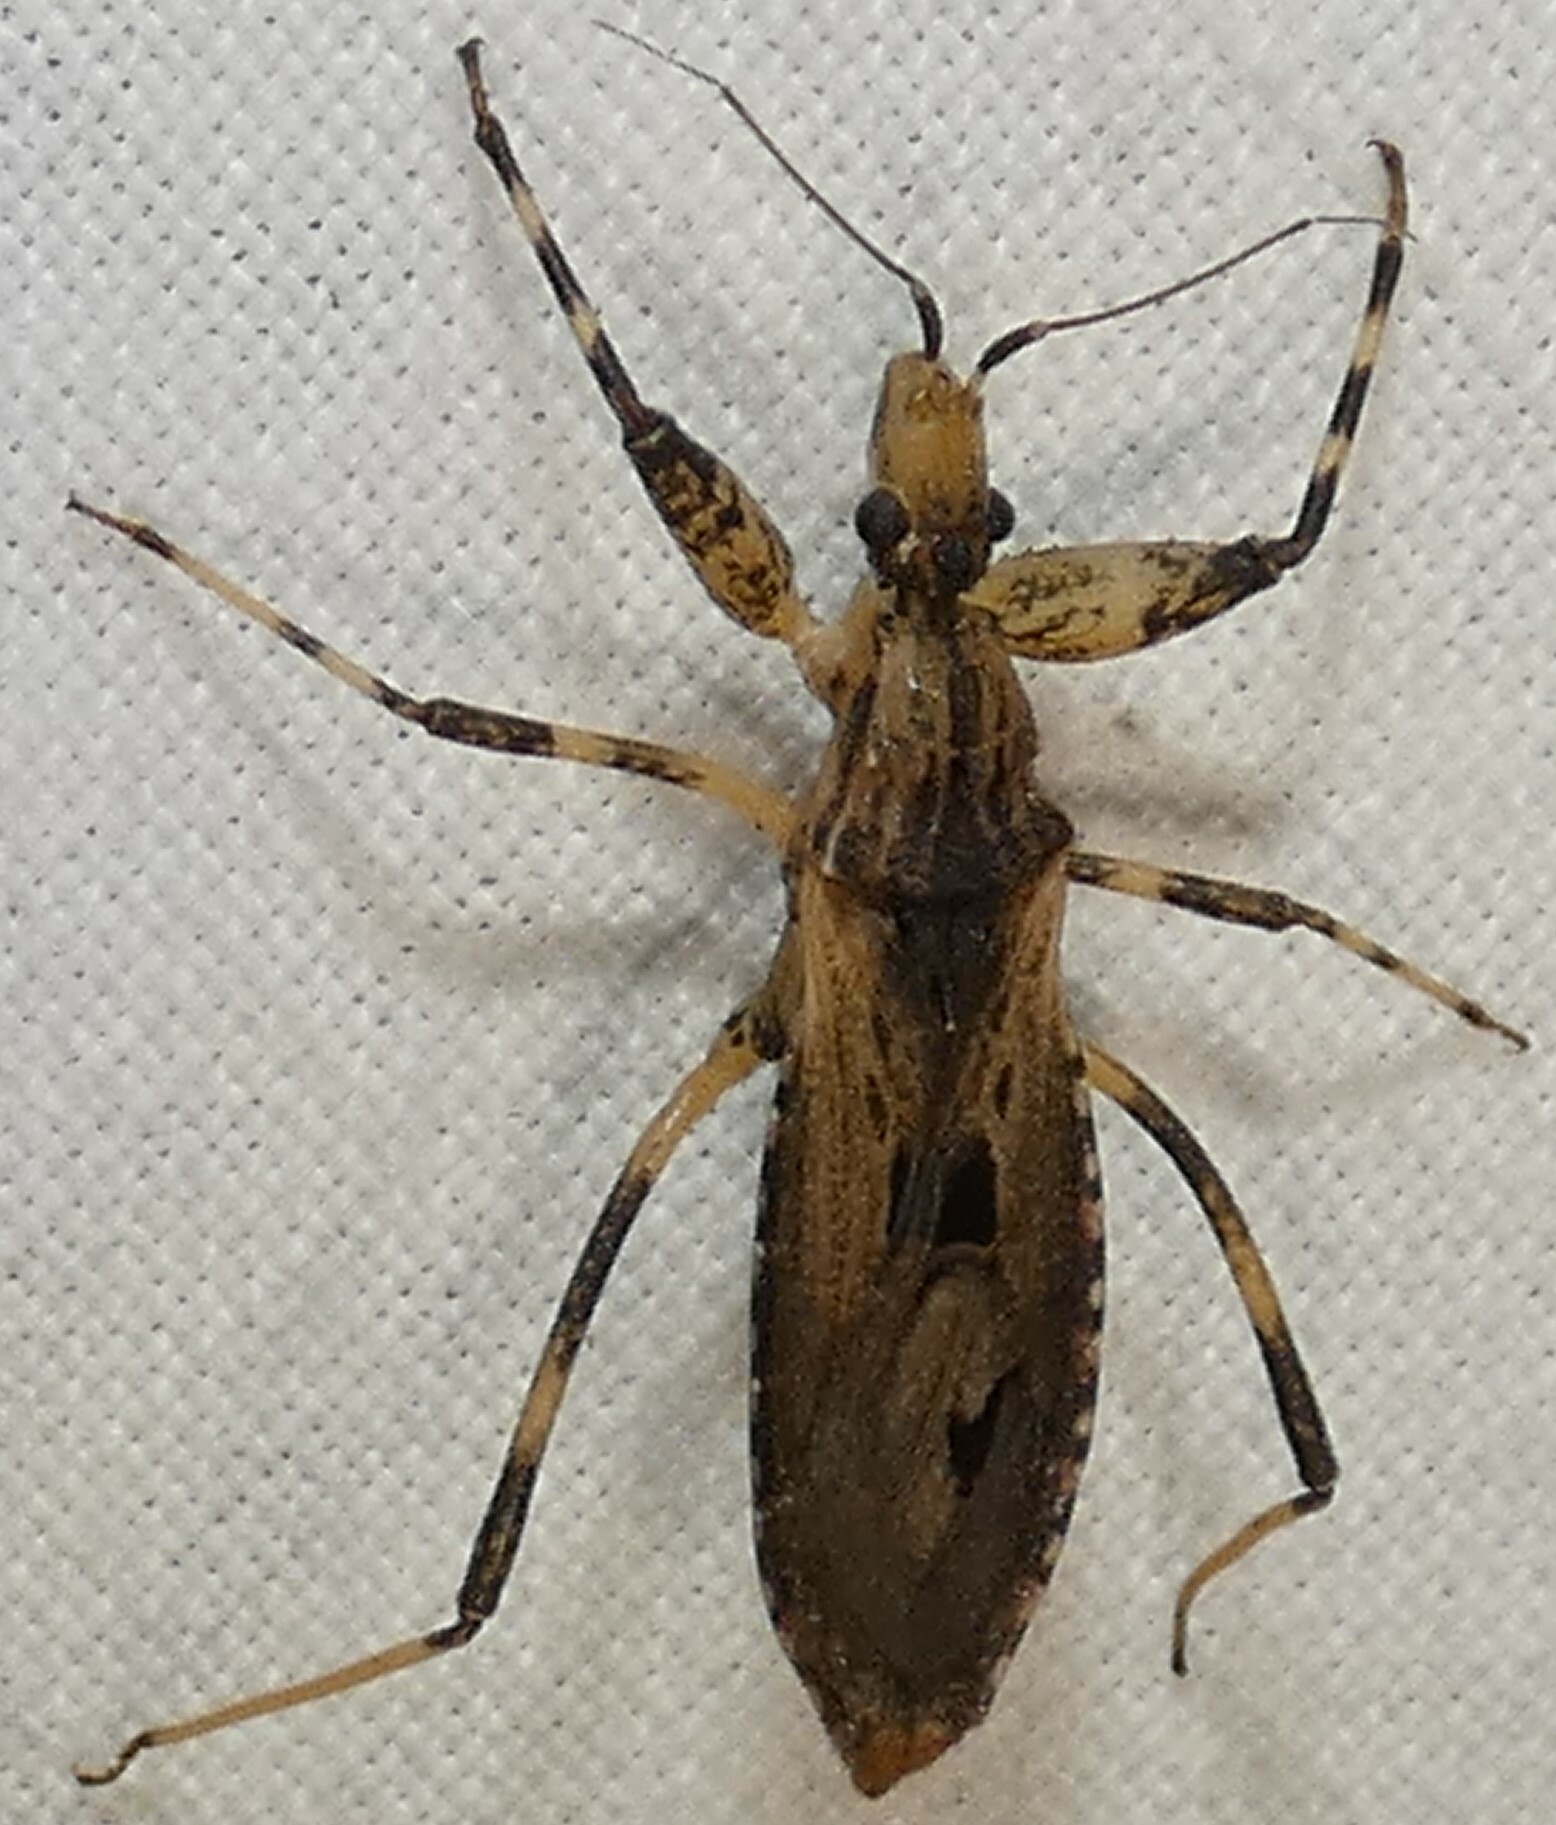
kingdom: Animalia
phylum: Arthropoda
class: Insecta
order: Hemiptera
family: Reduviidae
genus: Oncocephalus
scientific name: Oncocephalus geniculatus
